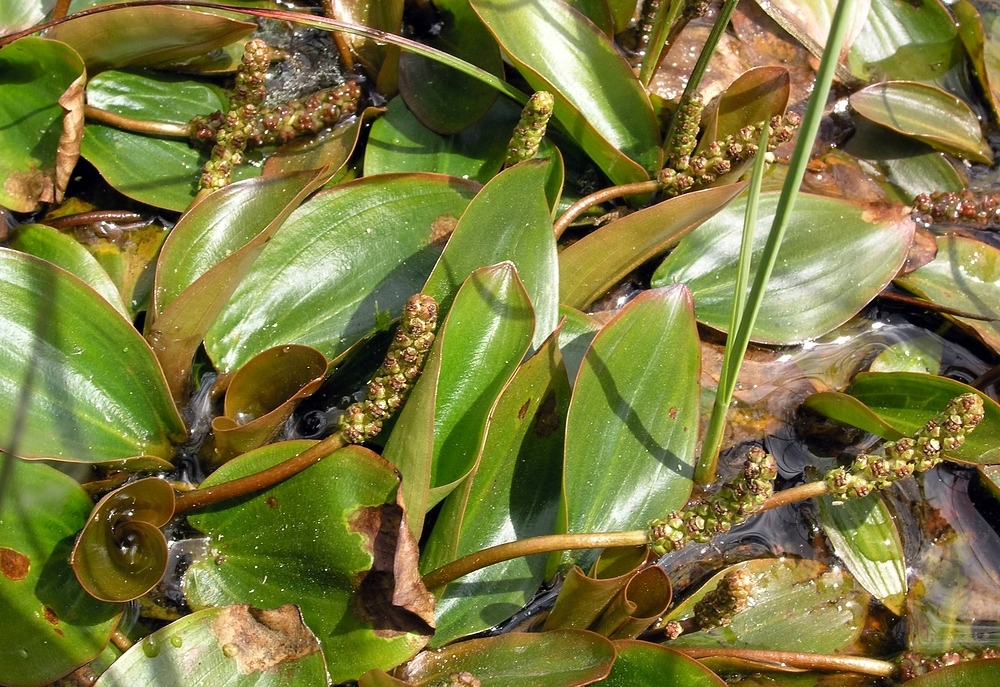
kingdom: Plantae
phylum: Tracheophyta
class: Liliopsida
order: Alismatales
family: Potamogetonaceae
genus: Potamogeton
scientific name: Potamogeton polygonifolius
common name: Bog pondweed
